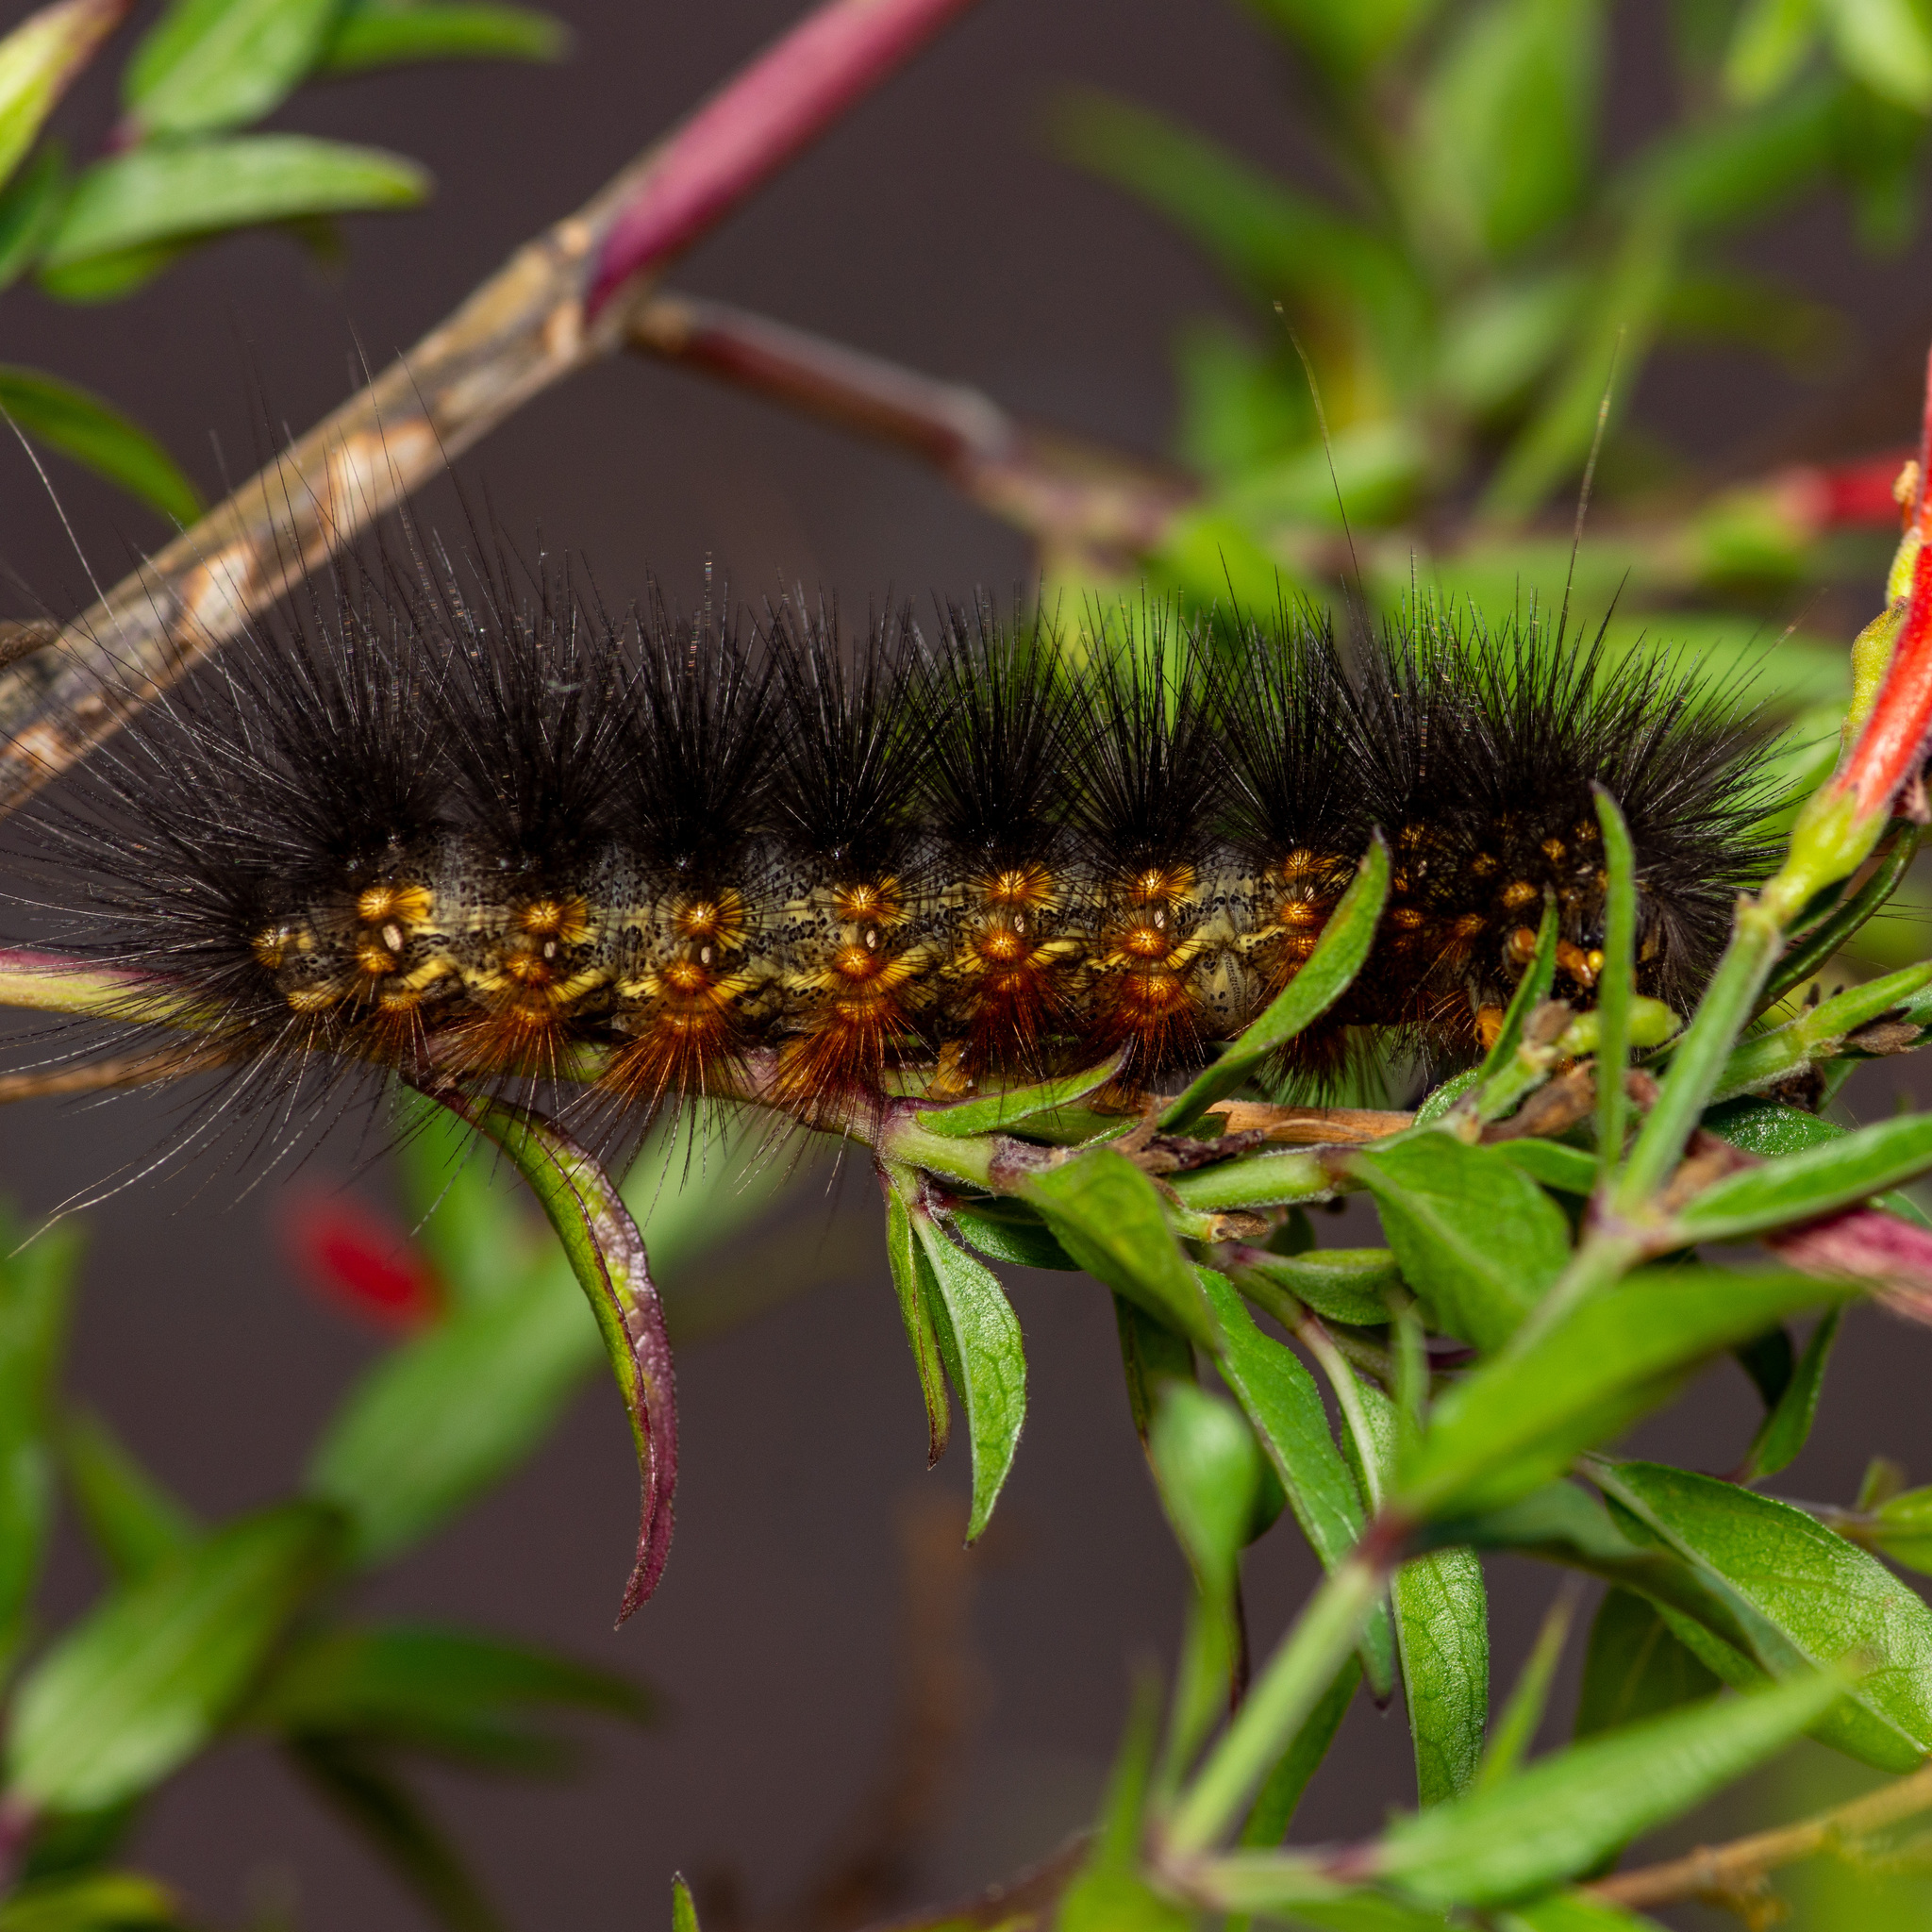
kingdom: Animalia
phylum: Arthropoda
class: Insecta
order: Lepidoptera
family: Erebidae
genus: Estigmene
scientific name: Estigmene acrea
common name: Salt marsh moth
